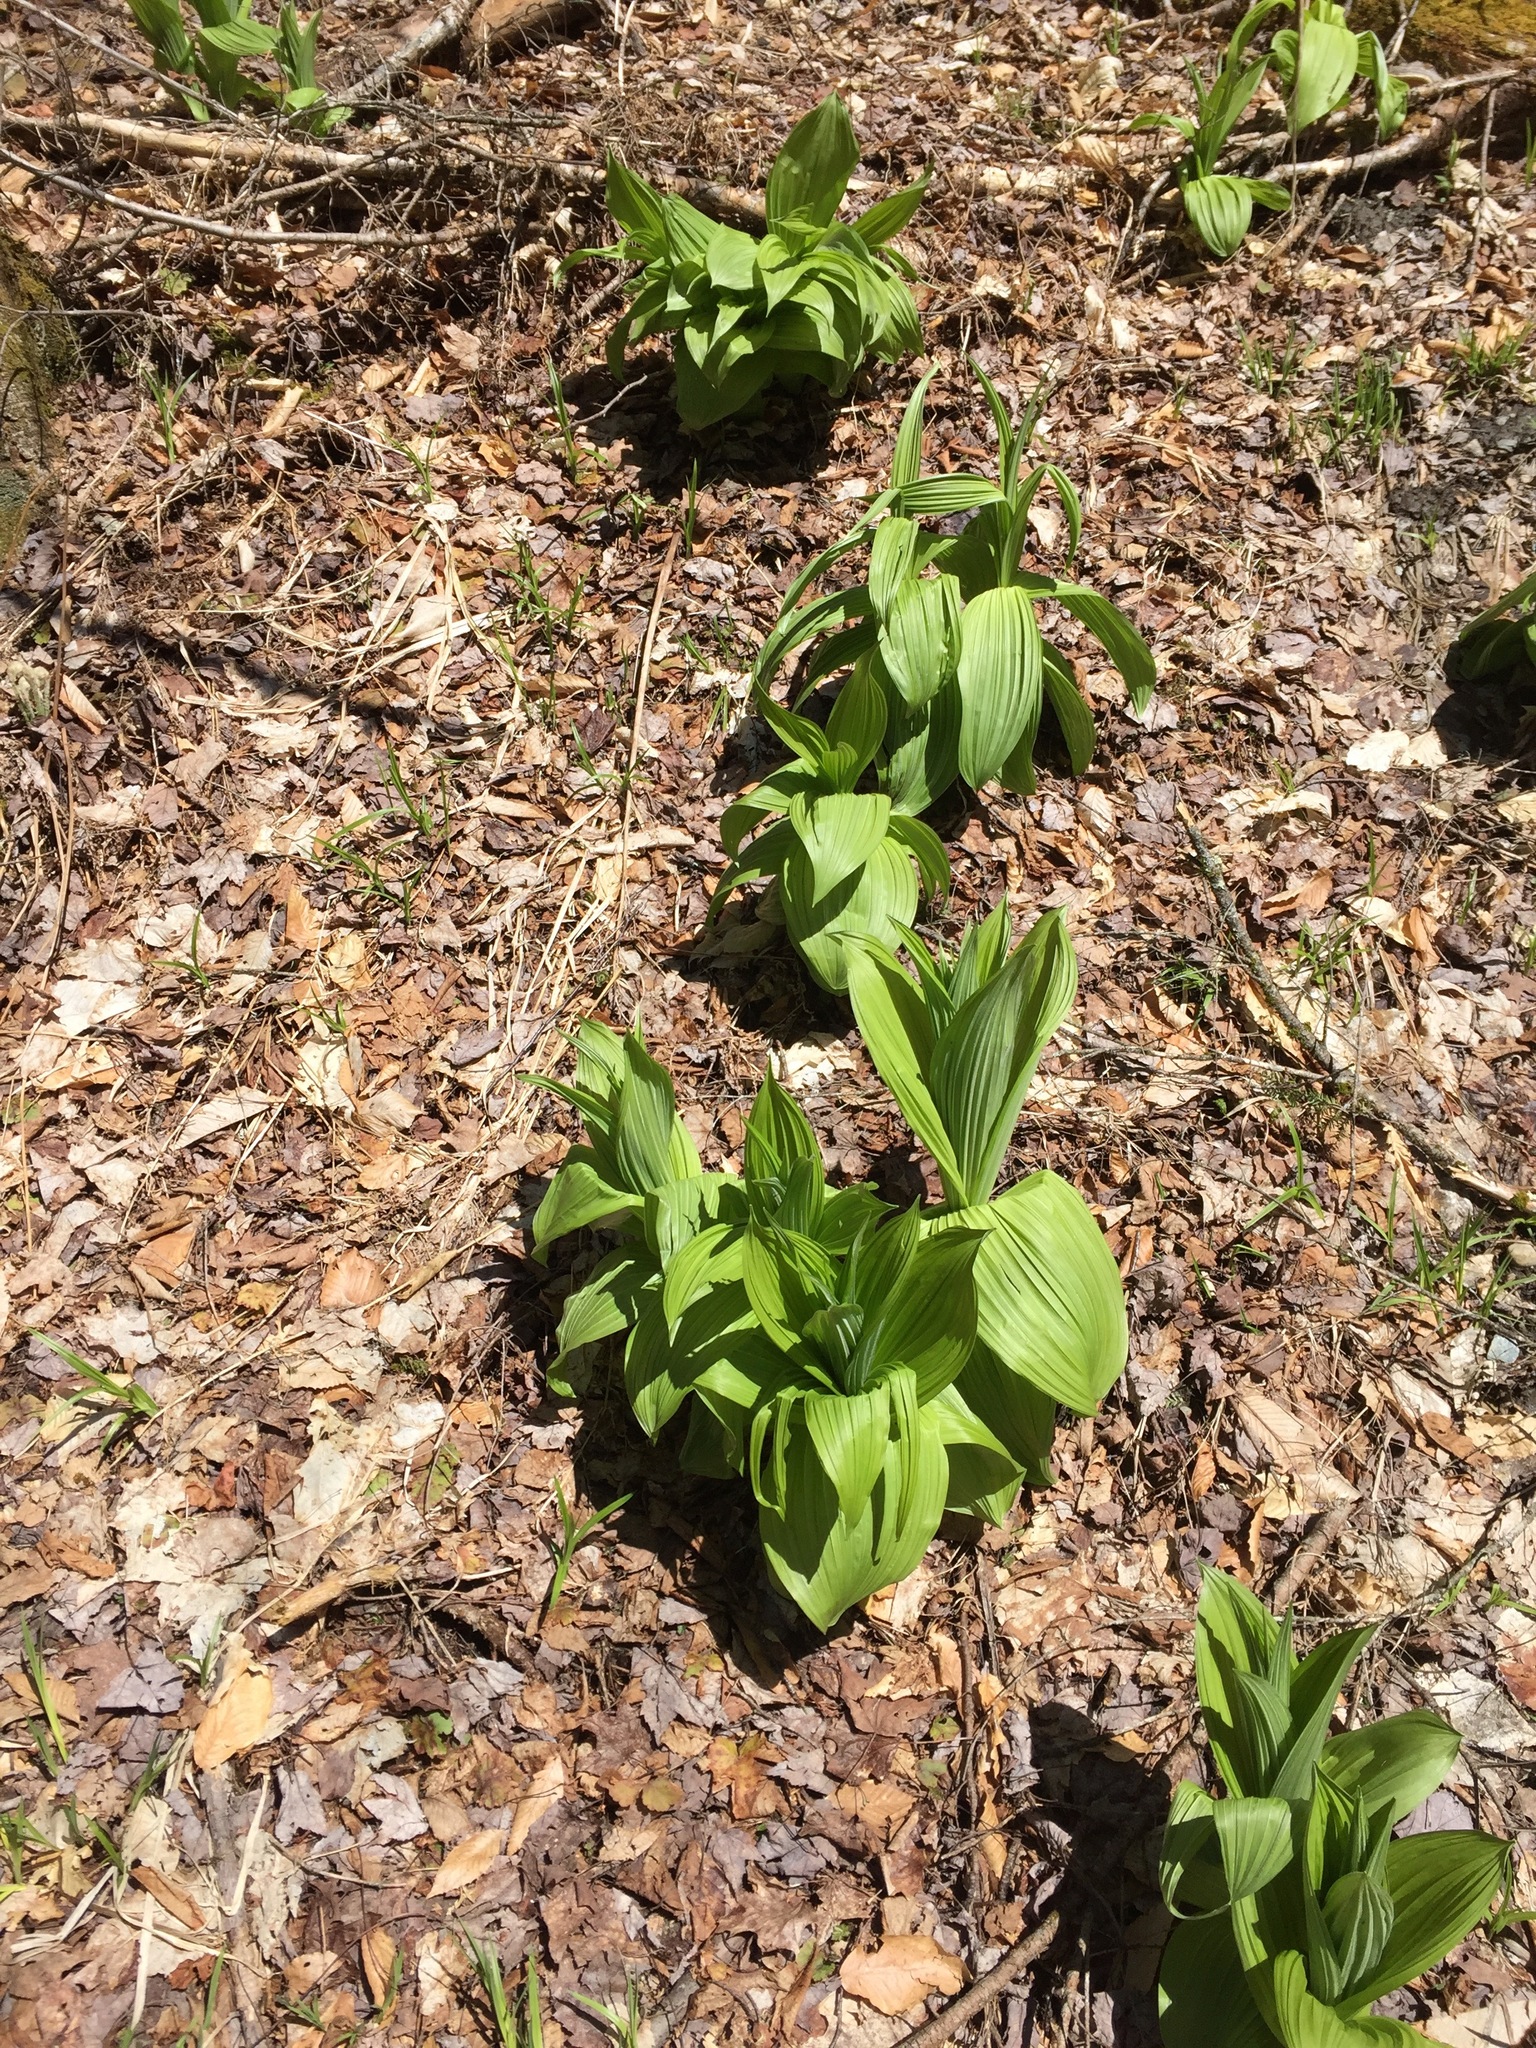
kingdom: Plantae
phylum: Tracheophyta
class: Liliopsida
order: Liliales
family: Melanthiaceae
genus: Veratrum
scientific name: Veratrum viride
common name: American false hellebore
